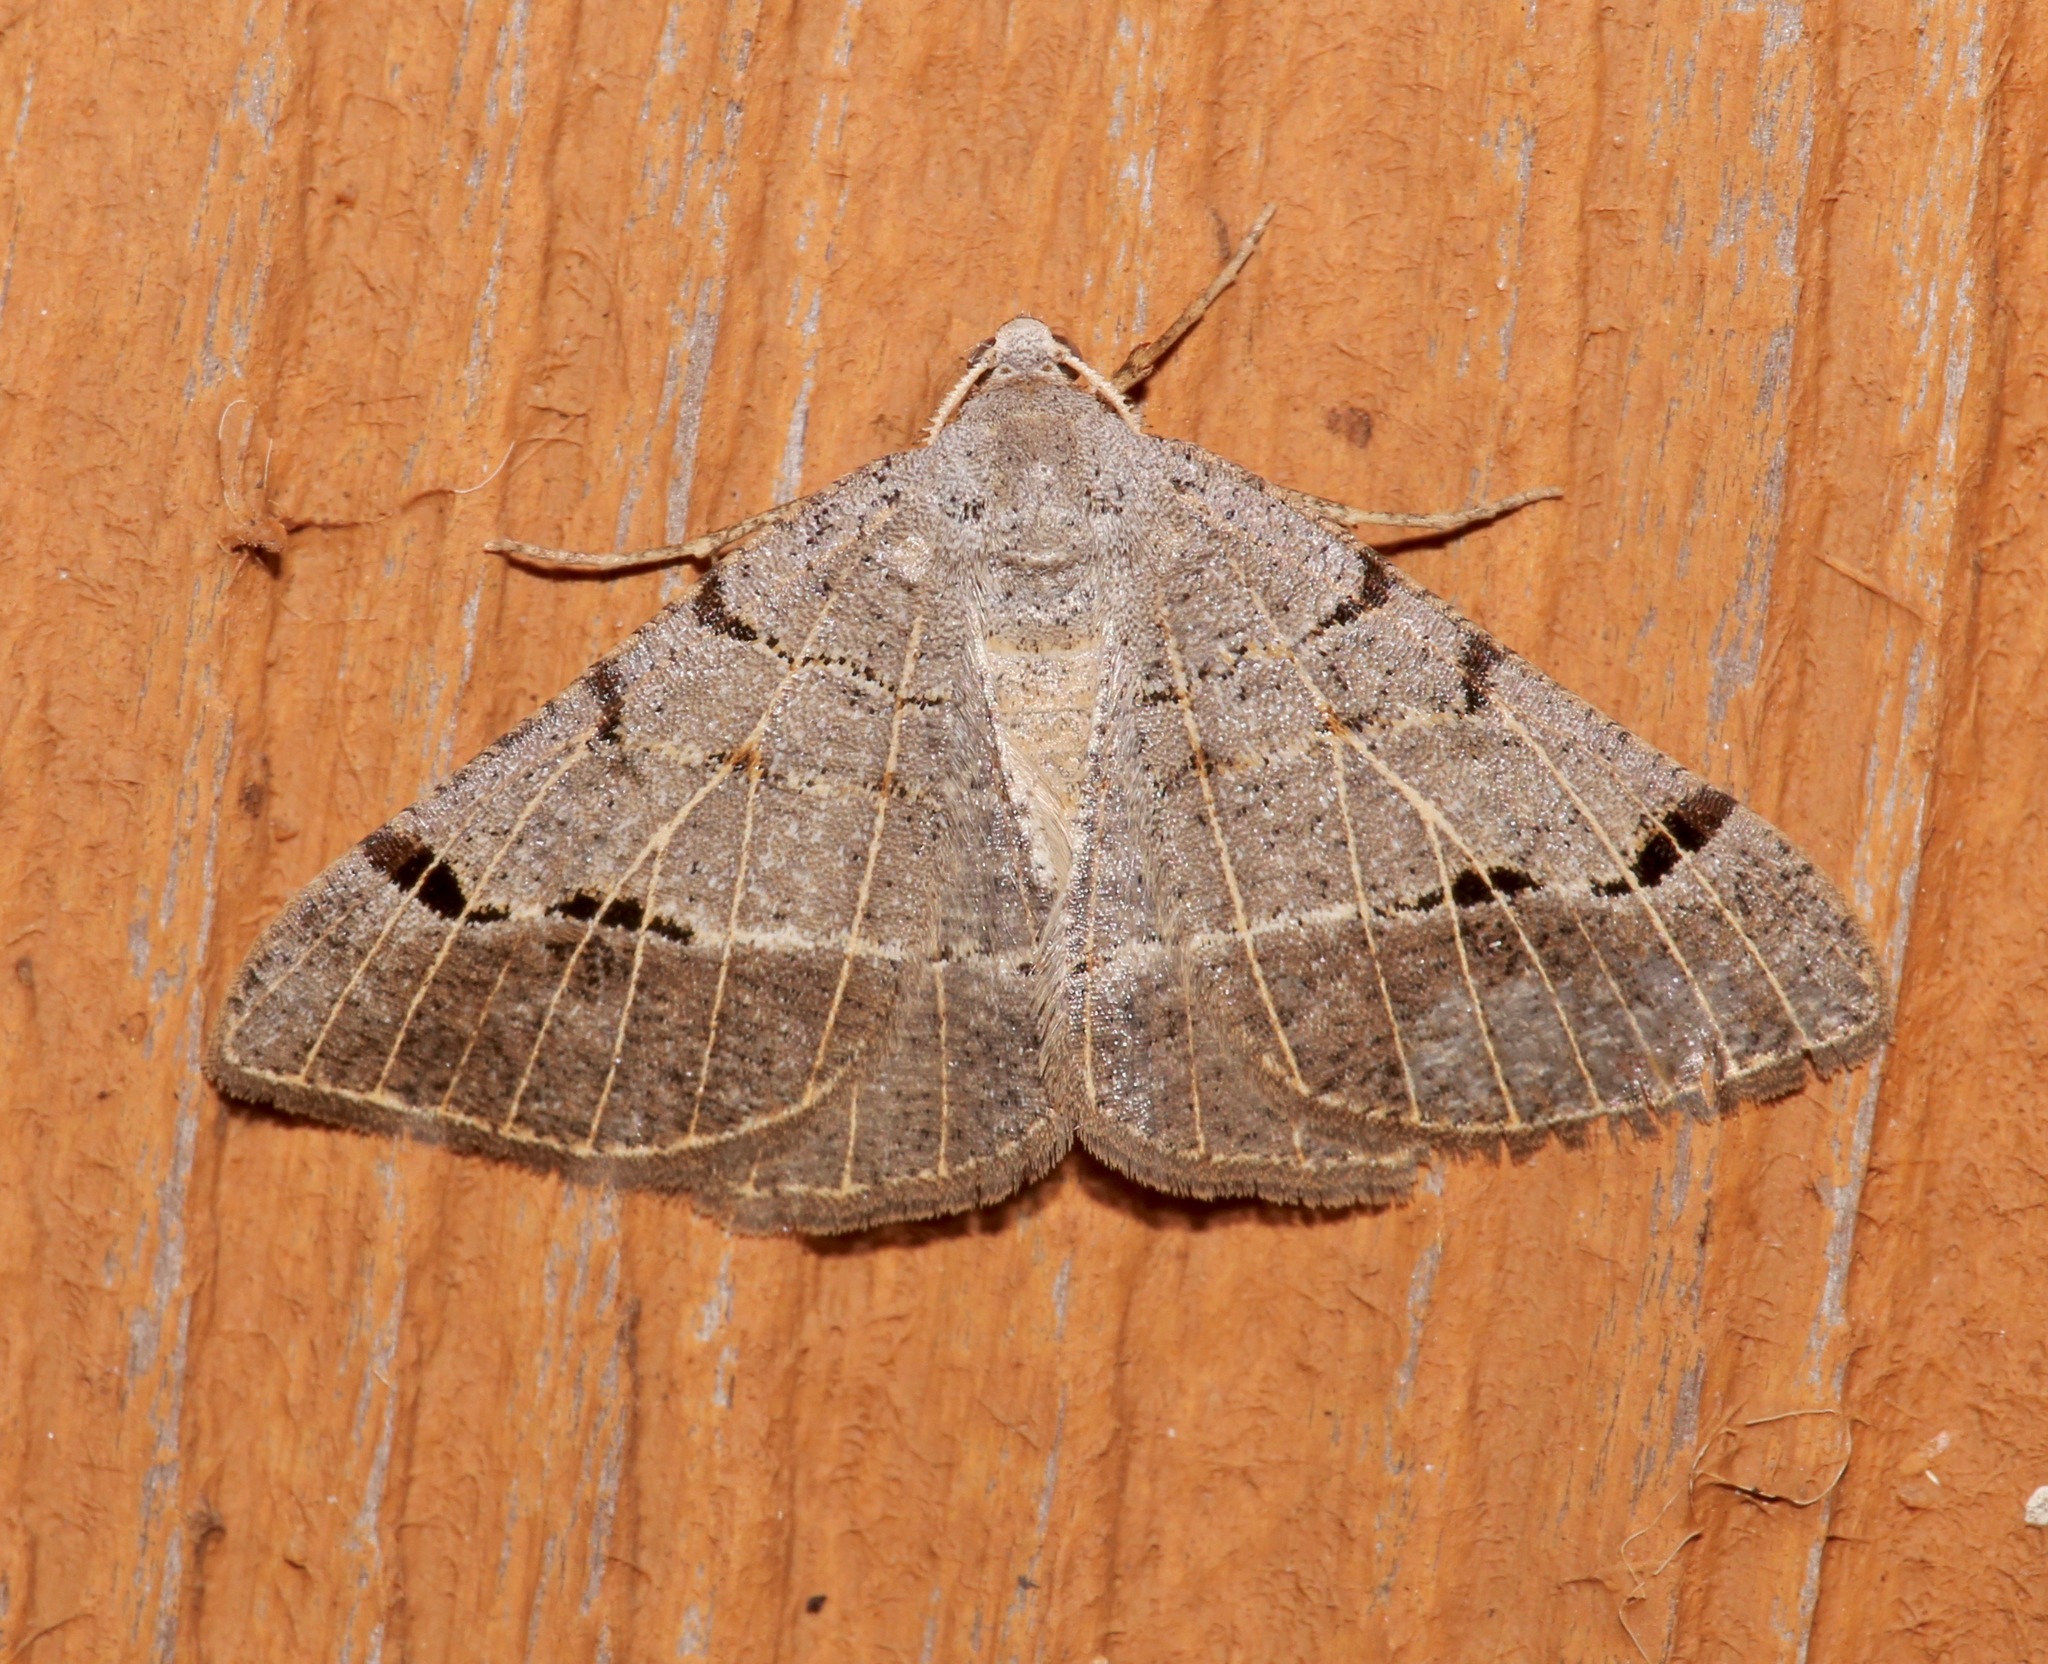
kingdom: Animalia
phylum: Arthropoda
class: Insecta
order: Lepidoptera
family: Geometridae
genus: Isturgia
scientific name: Isturgia dislocaria
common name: Pale-viened enconista
